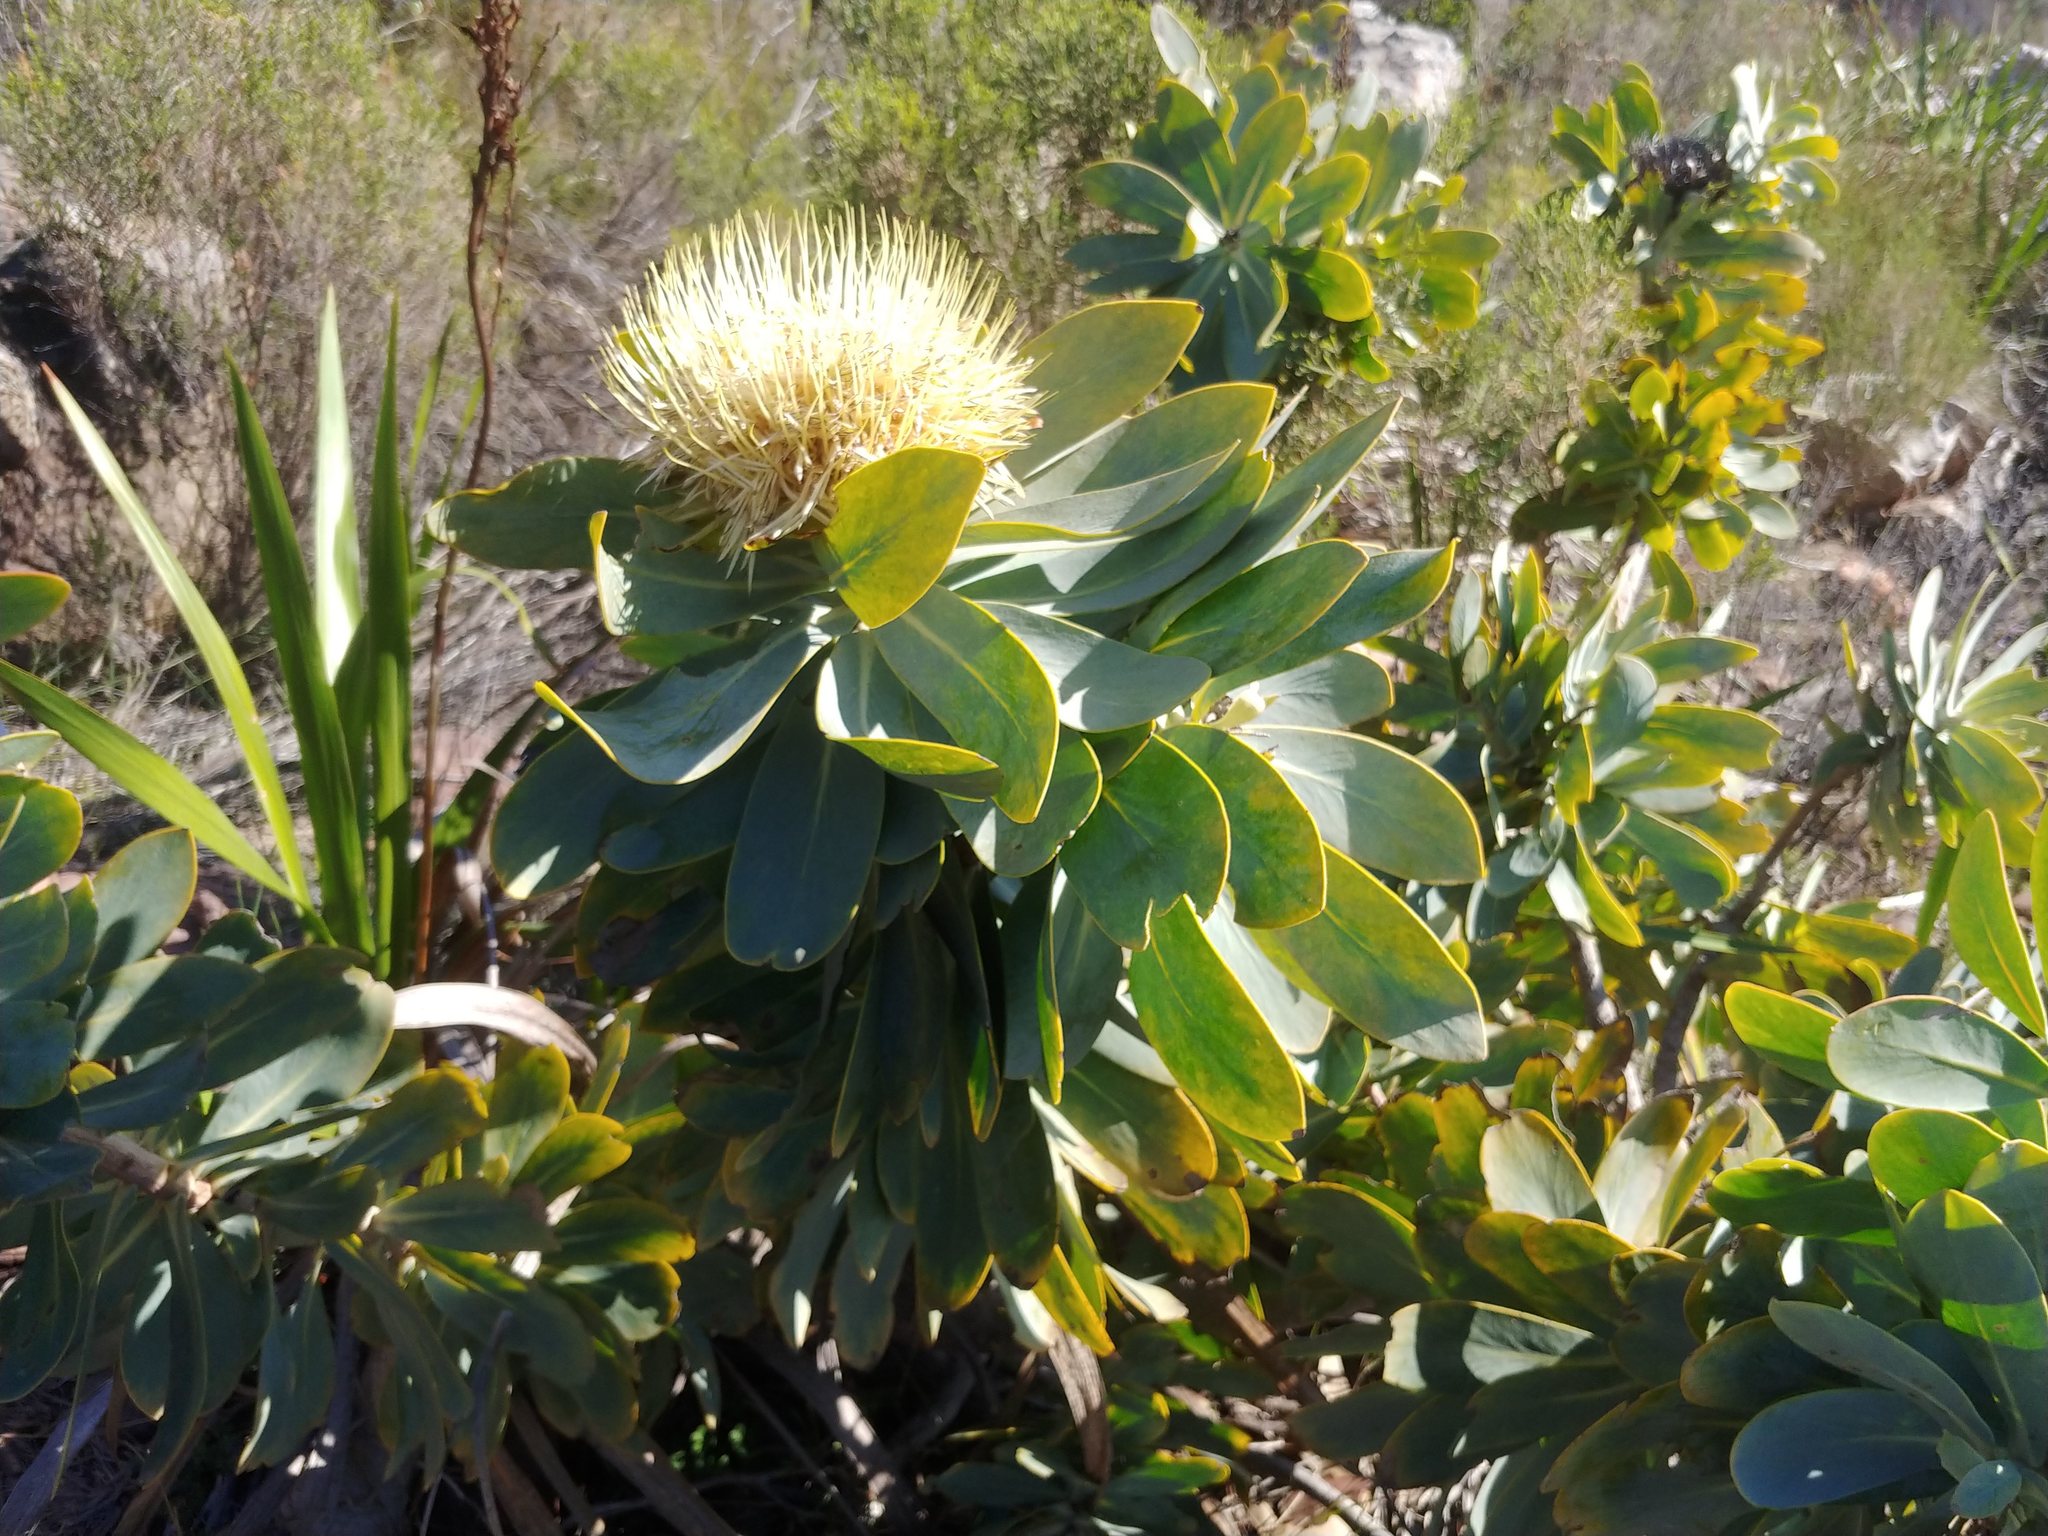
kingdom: Plantae
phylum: Tracheophyta
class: Magnoliopsida
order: Proteales
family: Proteaceae
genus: Protea
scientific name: Protea nitida
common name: Tree protea
